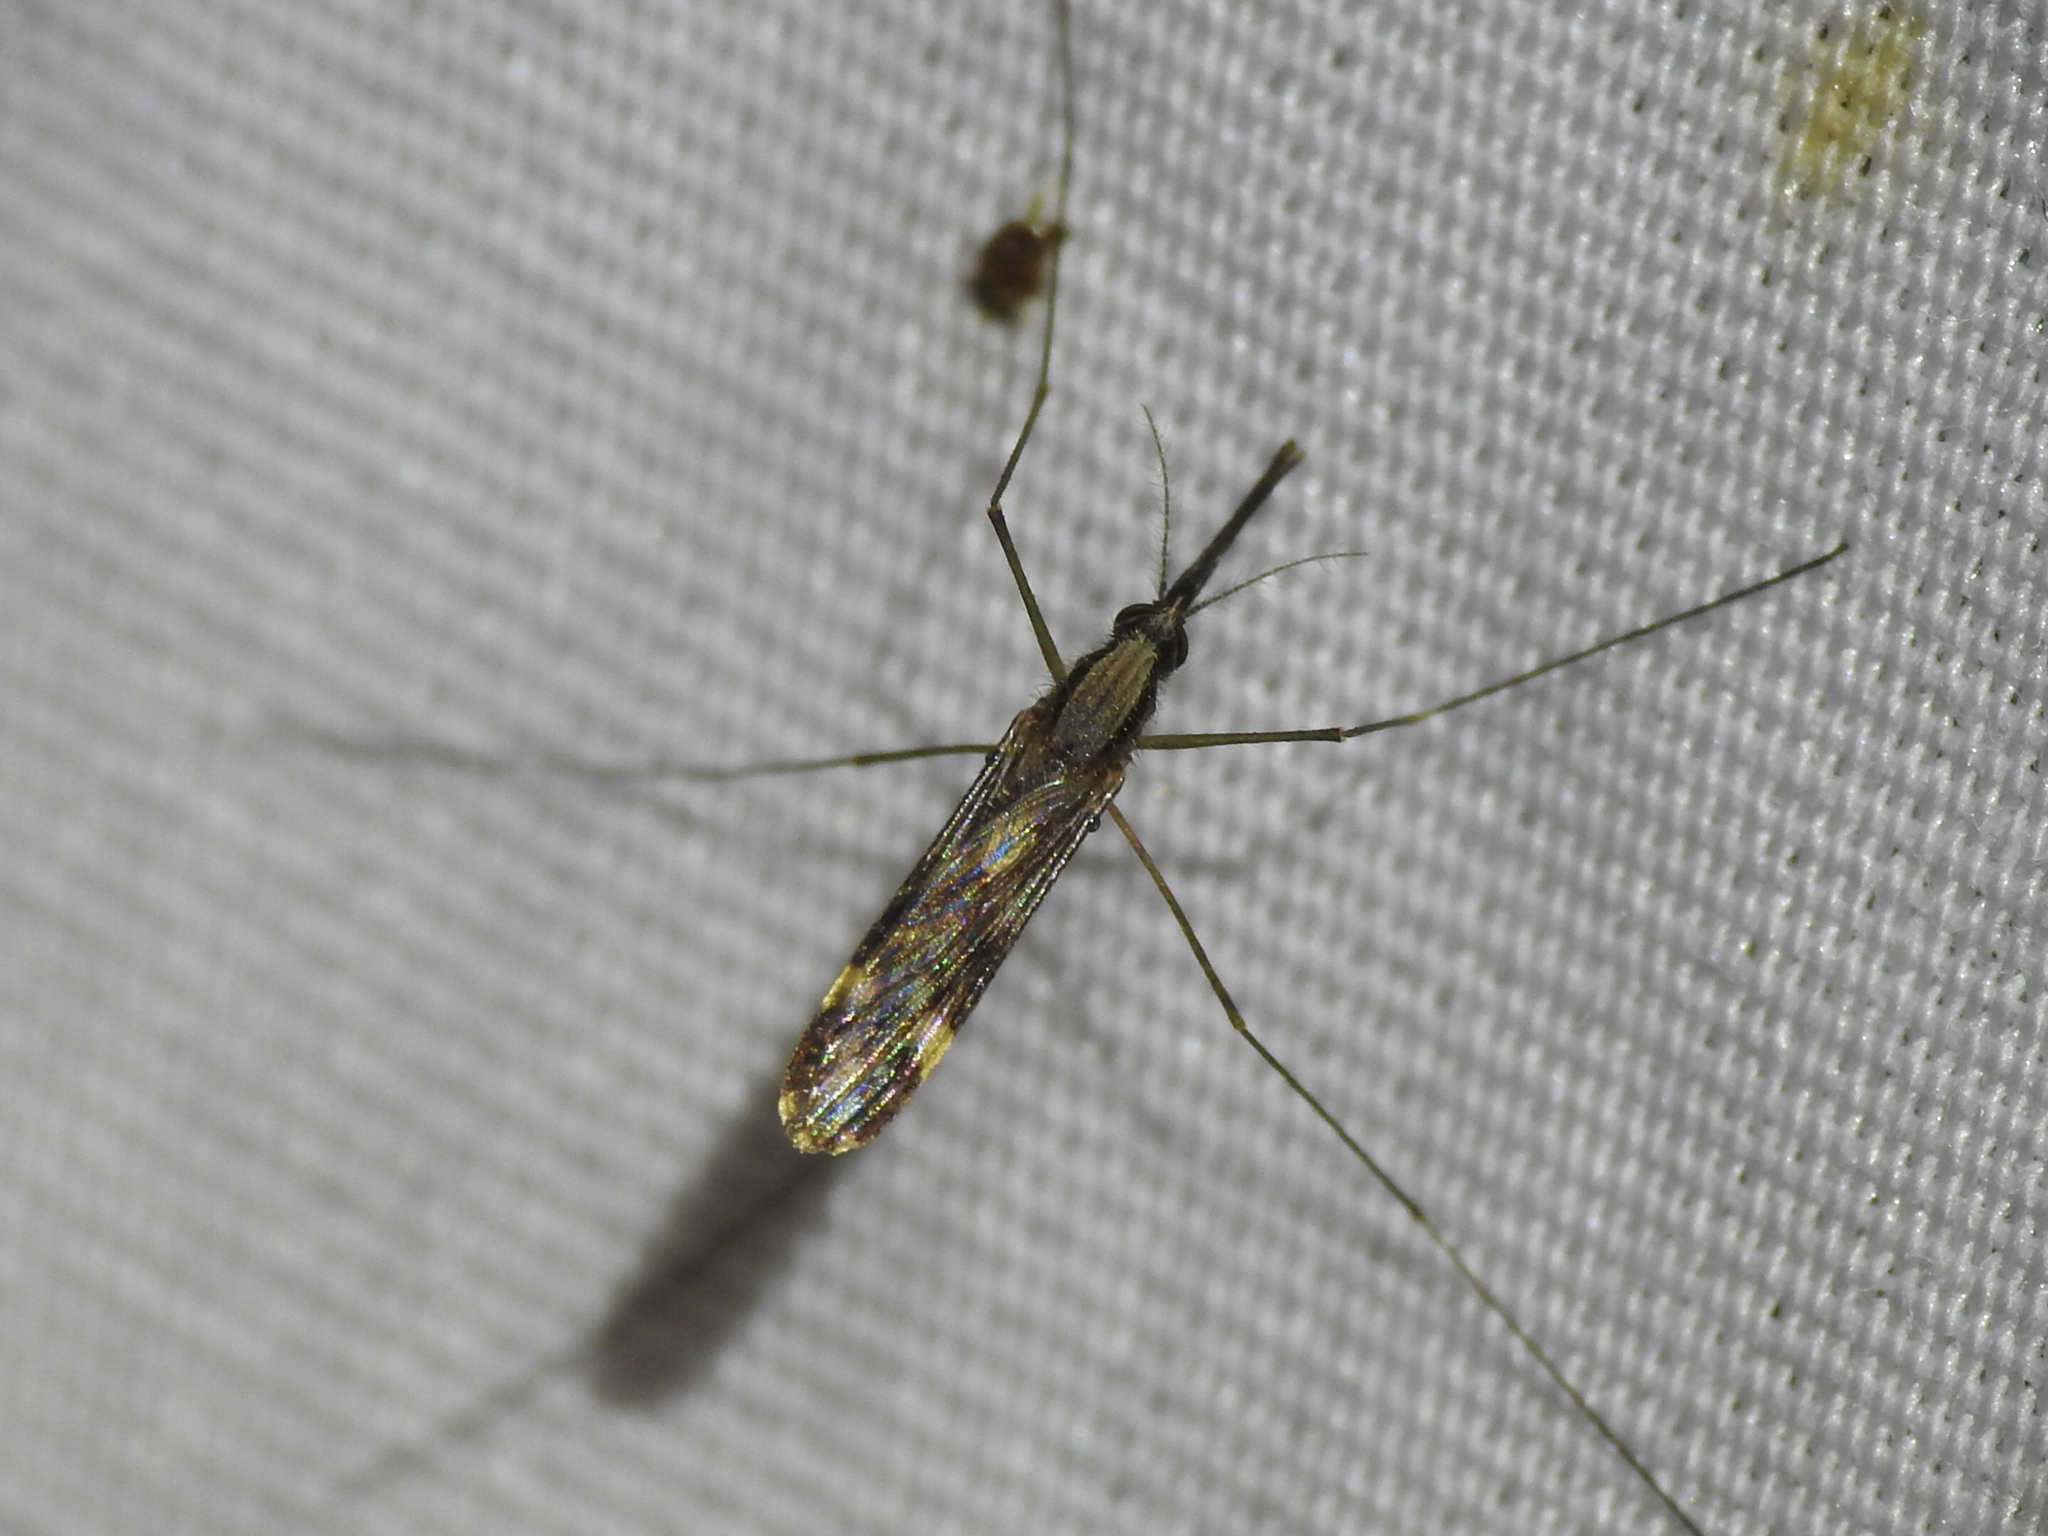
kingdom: Animalia
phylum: Arthropoda
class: Insecta
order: Diptera
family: Culicidae
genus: Anopheles
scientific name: Anopheles punctipennis
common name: Woodland malaria mosquito
